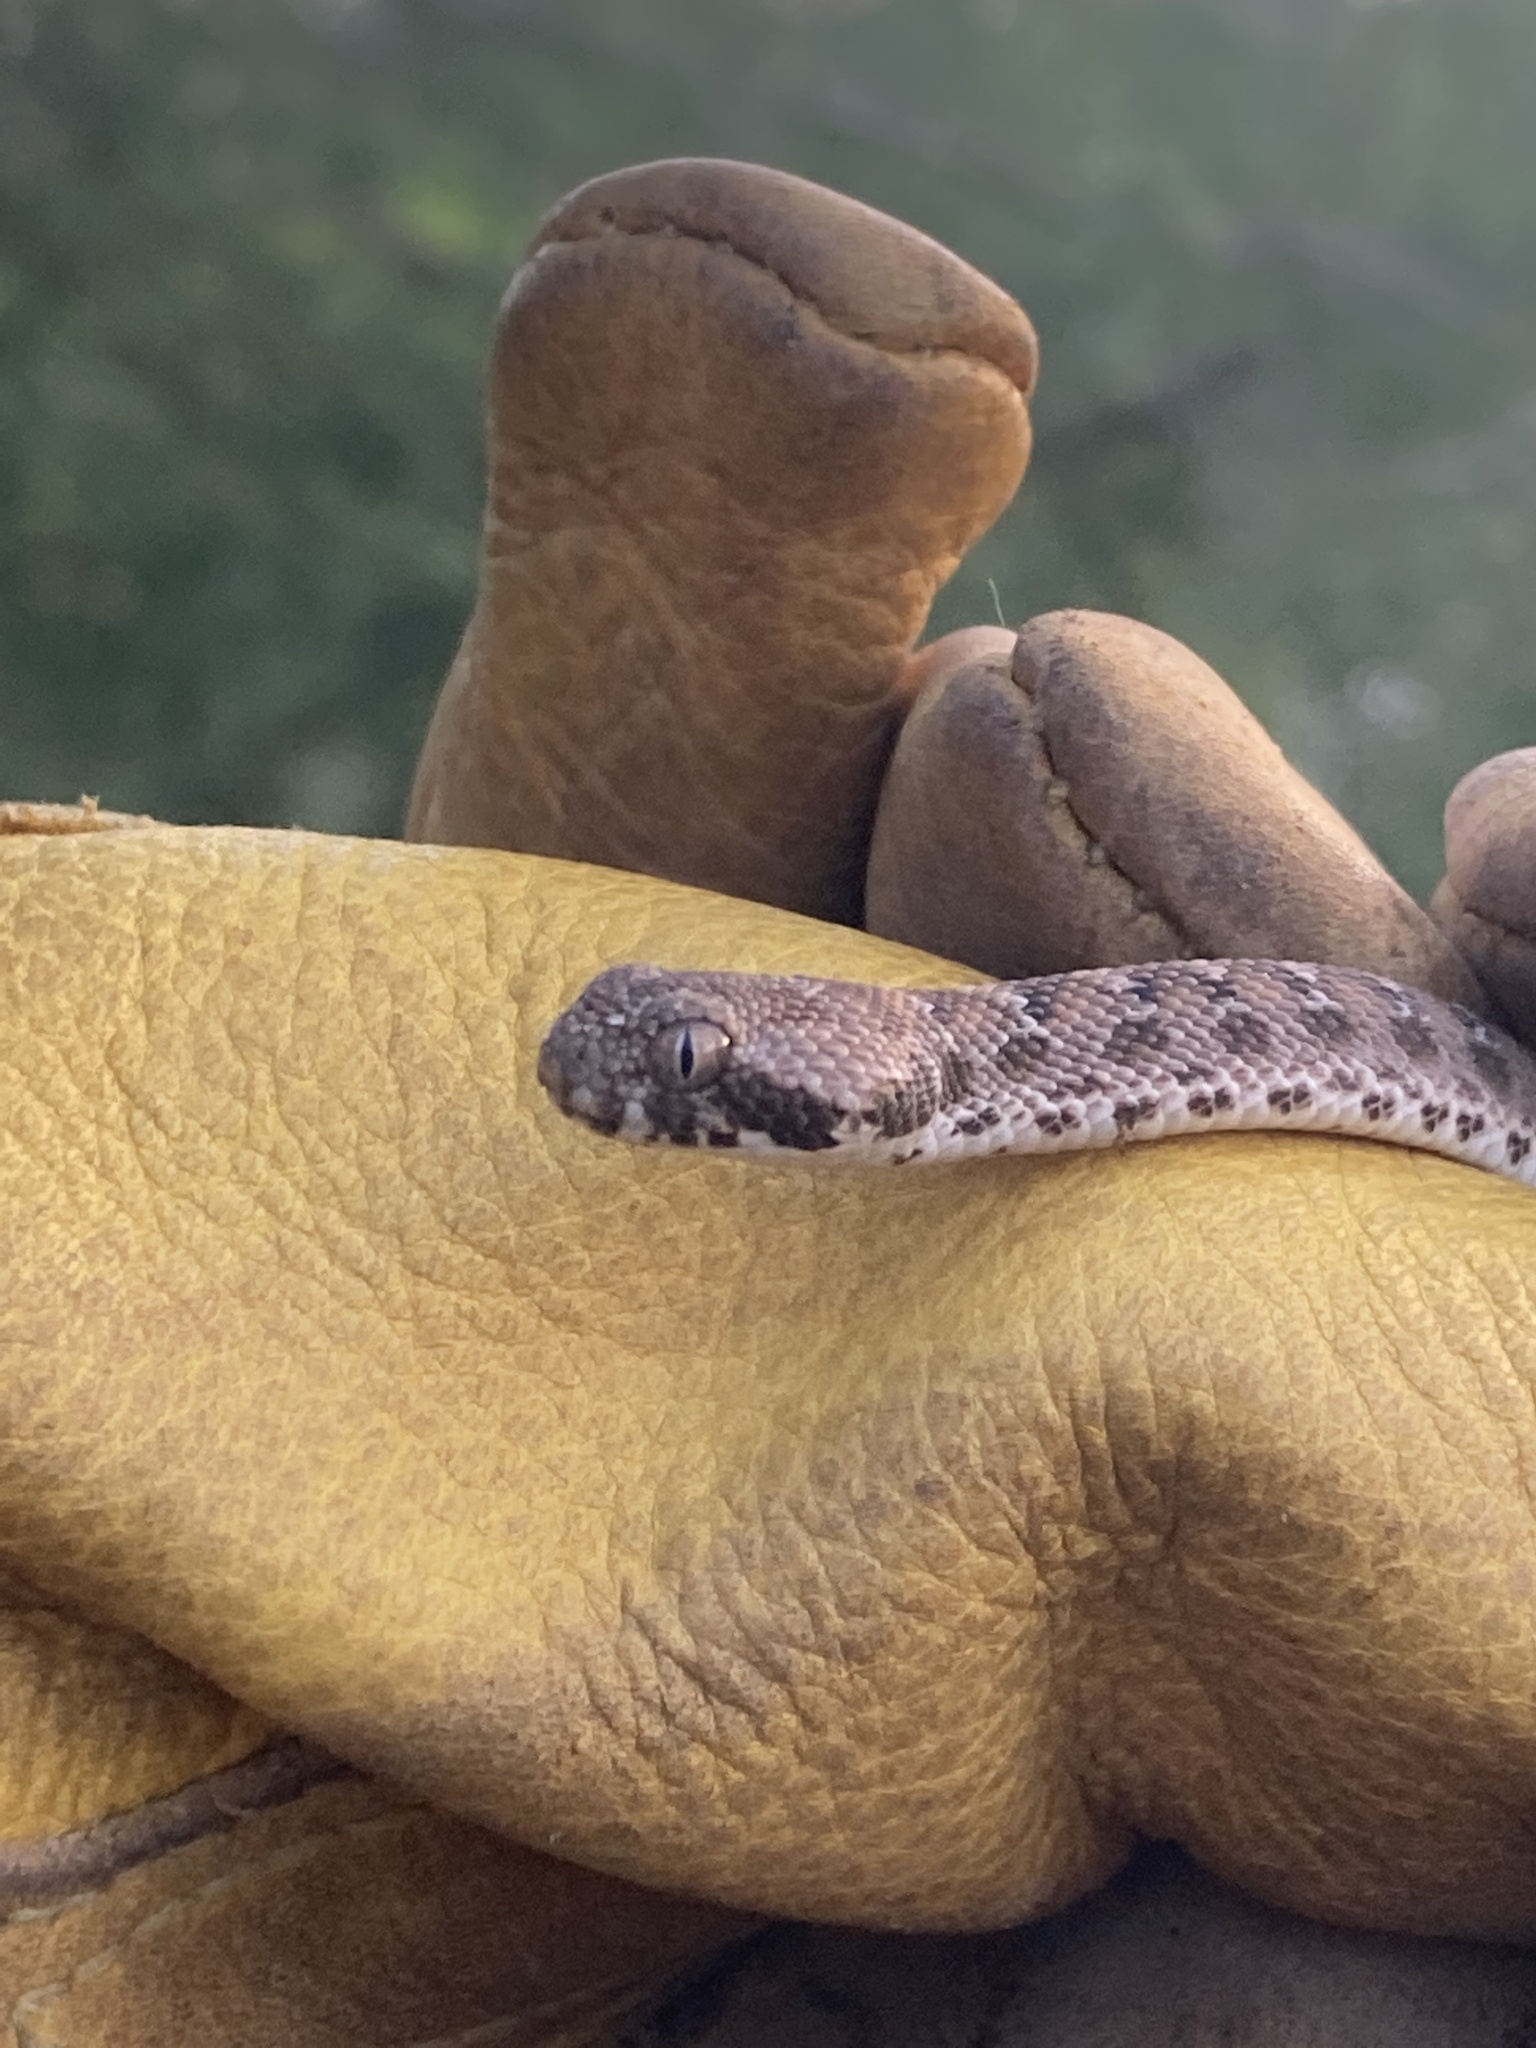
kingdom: Animalia
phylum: Chordata
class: Squamata
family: Viperidae
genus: Echis
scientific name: Echis leucogaster
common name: White-bellied carpet viper
